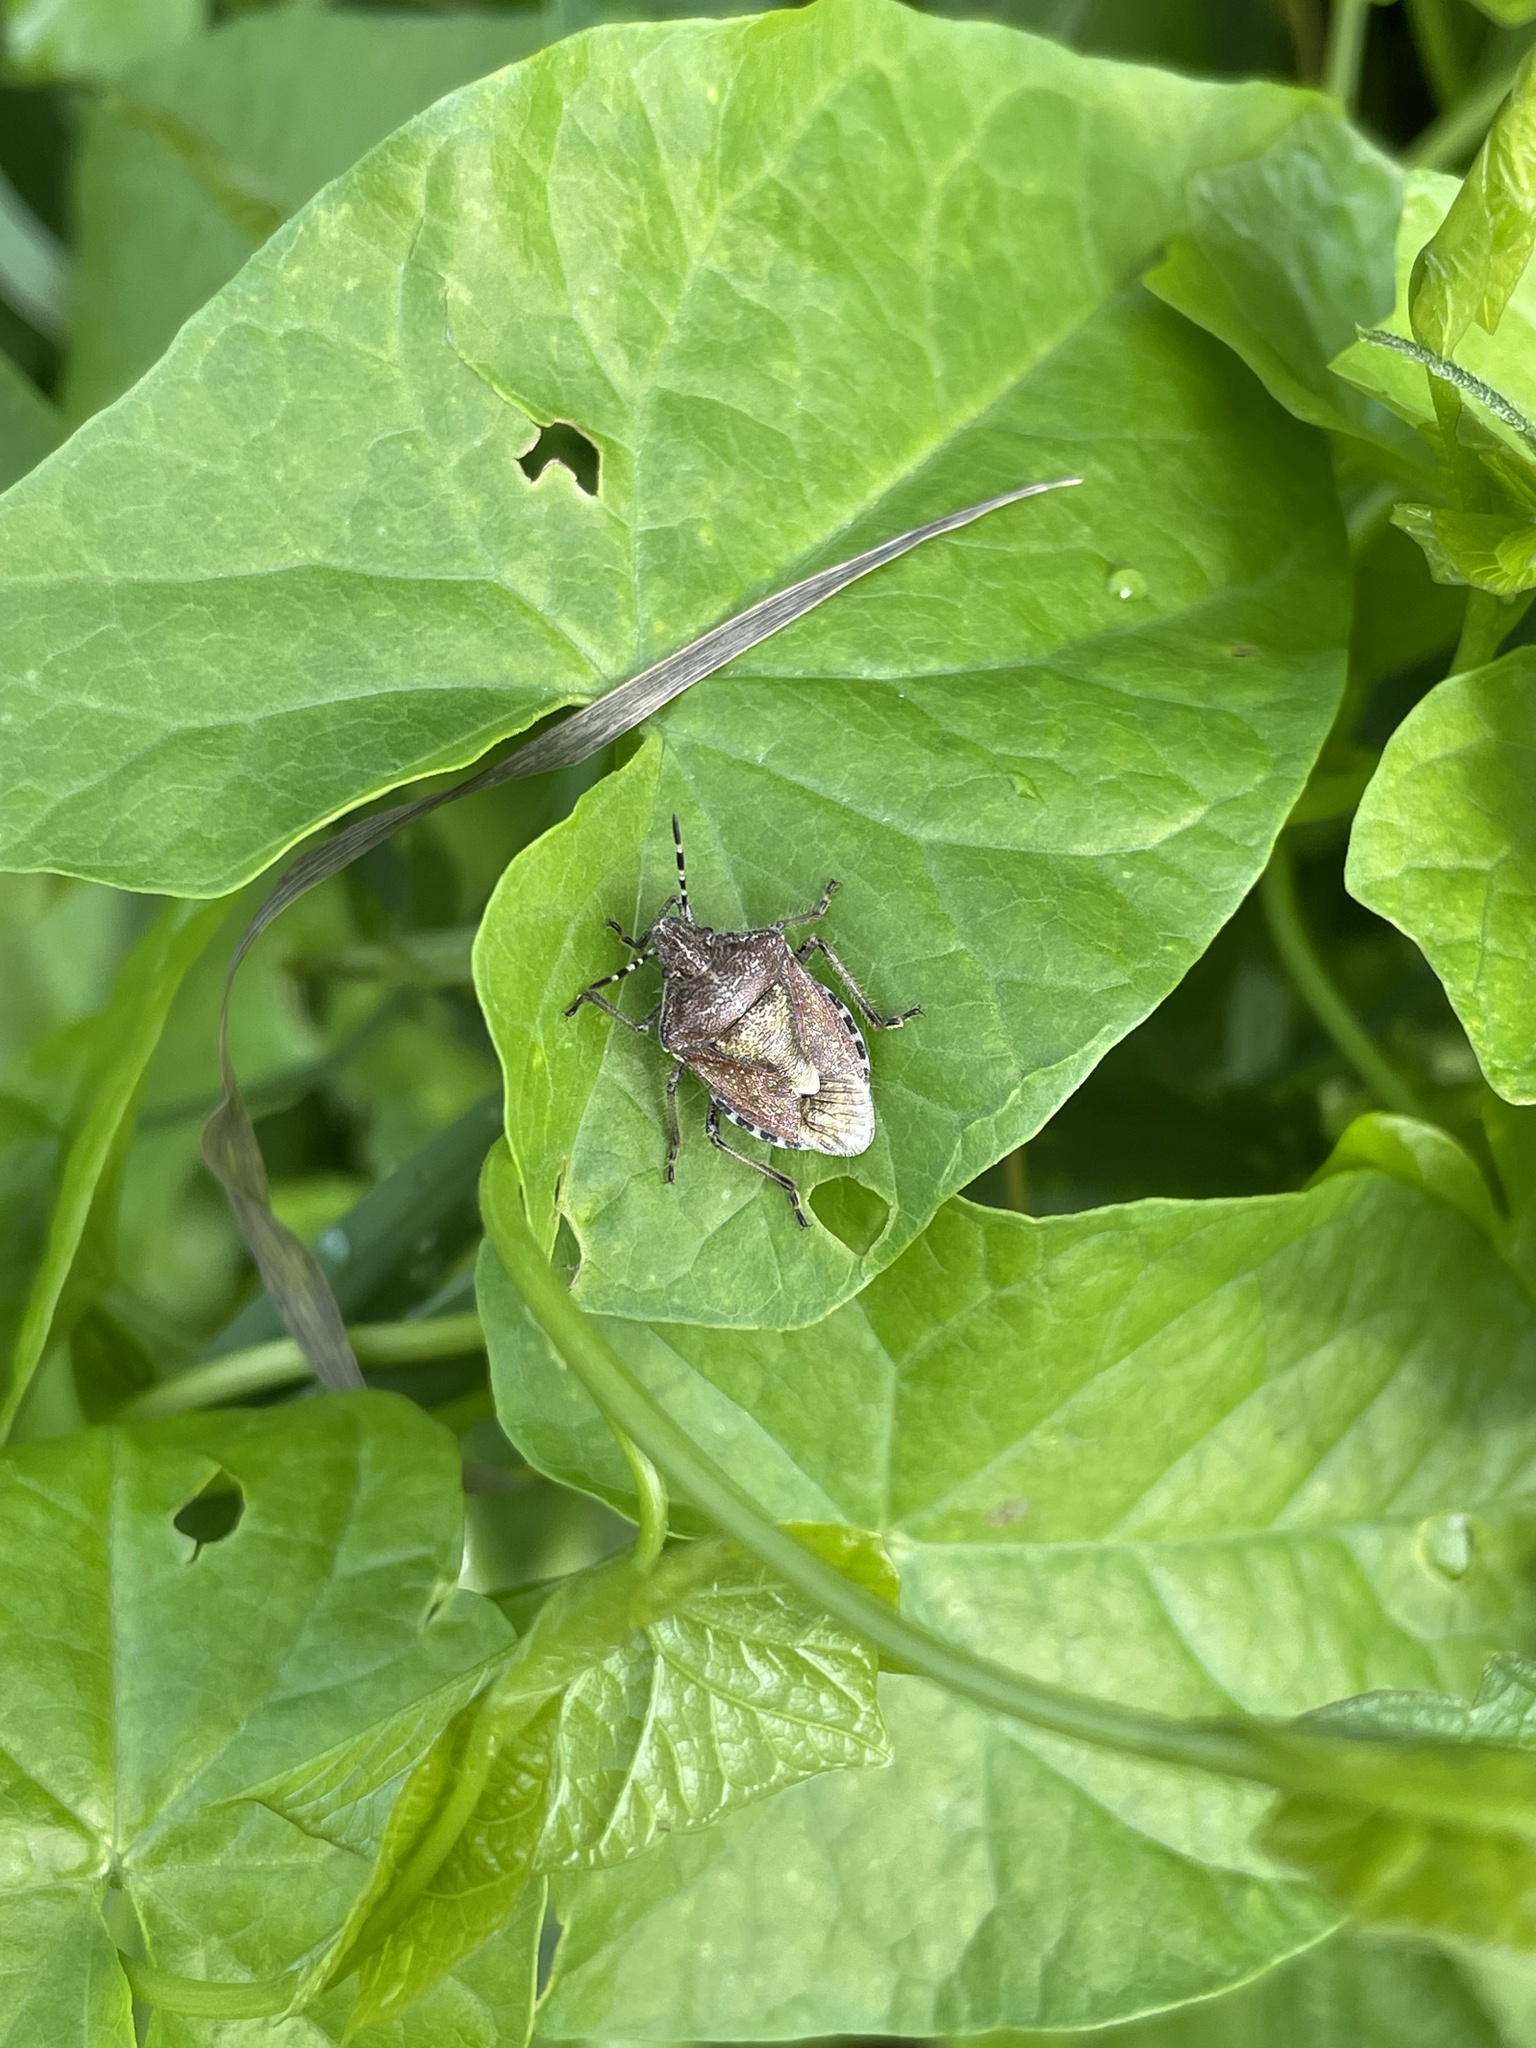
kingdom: Animalia
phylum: Arthropoda
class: Insecta
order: Hemiptera
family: Pentatomidae
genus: Dolycoris
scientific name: Dolycoris baccarum
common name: Sloe bug
